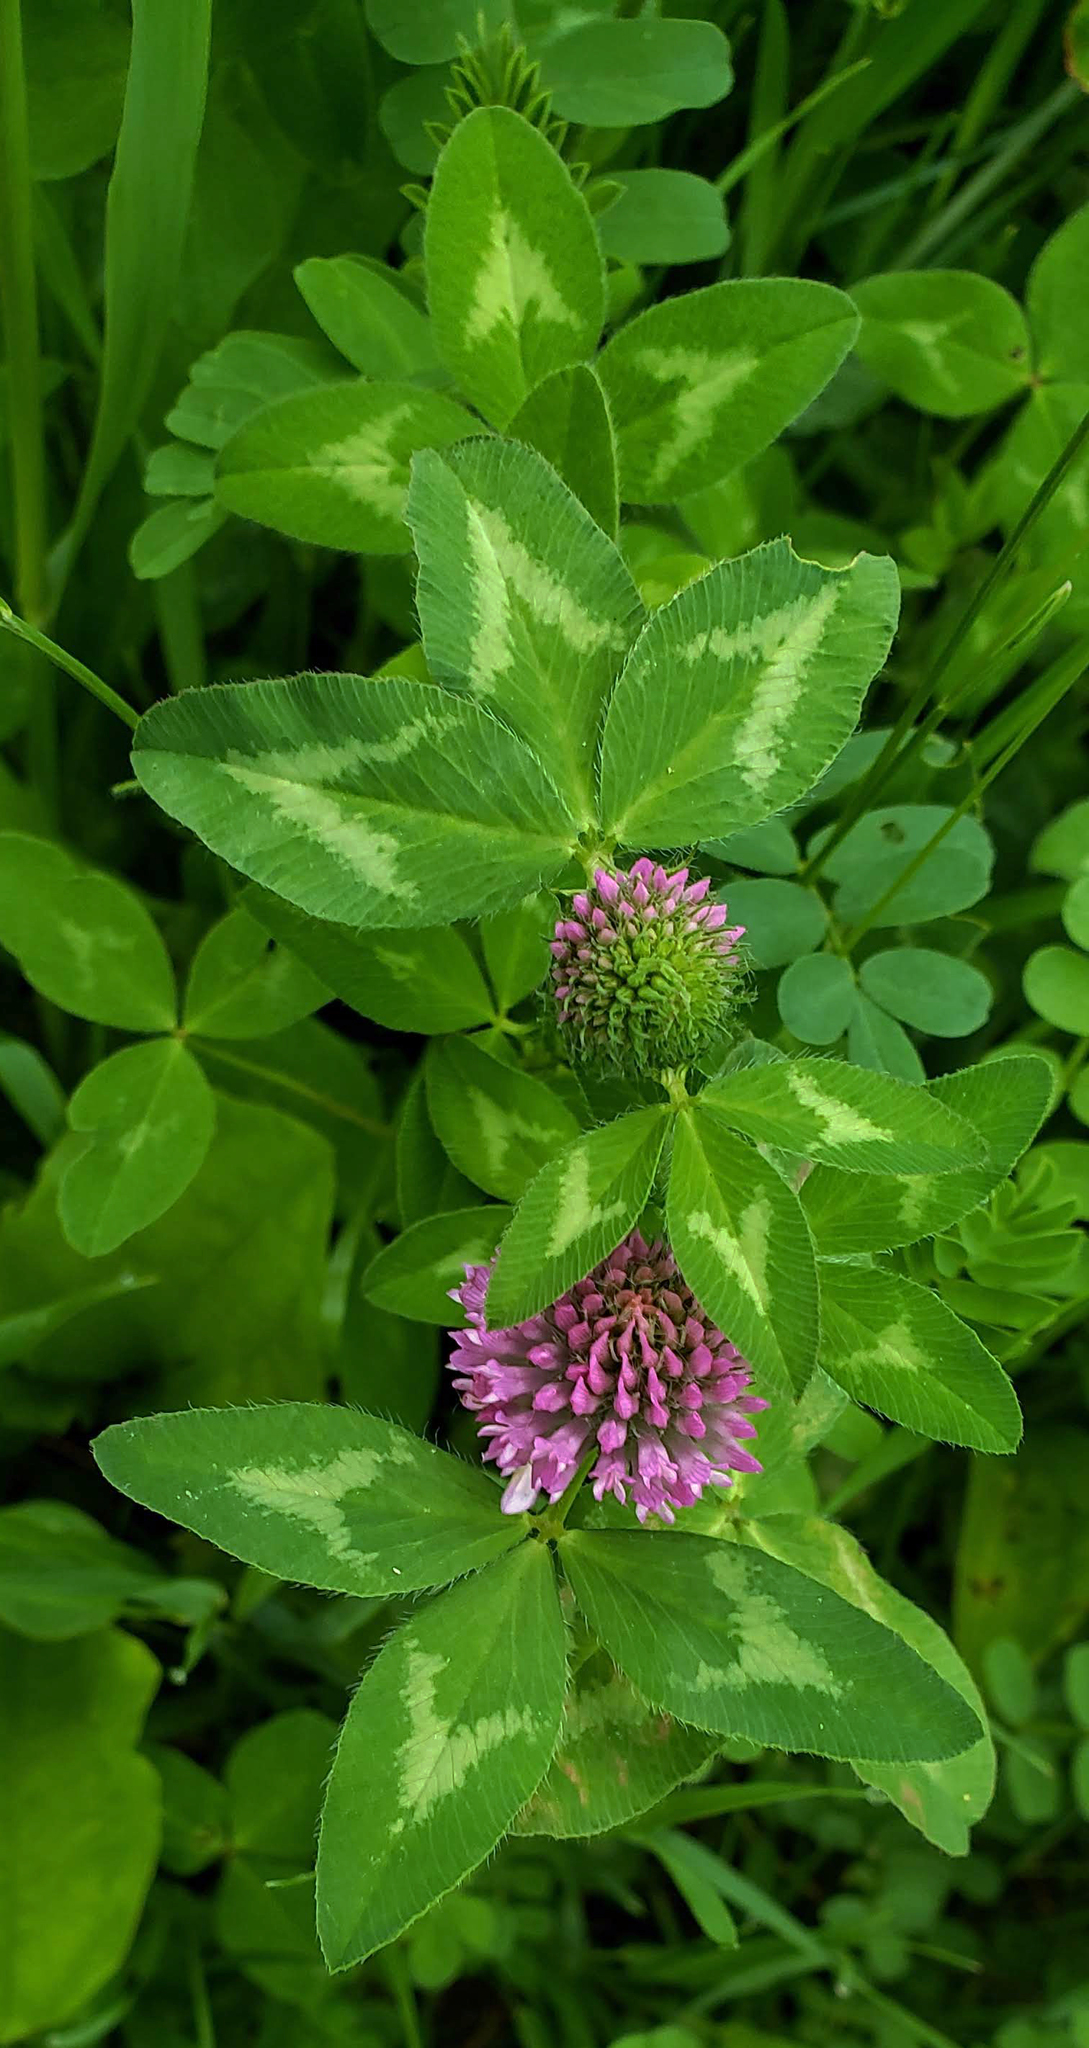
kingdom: Plantae
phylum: Tracheophyta
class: Magnoliopsida
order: Fabales
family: Fabaceae
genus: Trifolium
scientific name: Trifolium pratense
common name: Red clover
